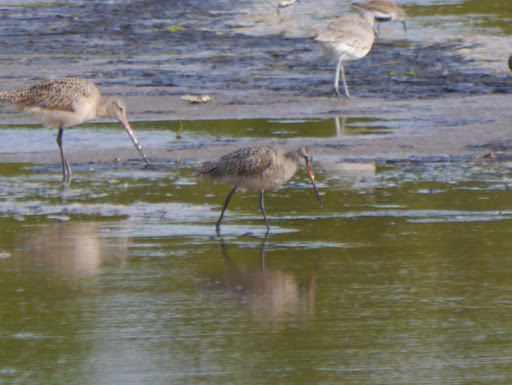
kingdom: Animalia
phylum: Chordata
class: Aves
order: Charadriiformes
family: Scolopacidae
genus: Limosa
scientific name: Limosa fedoa
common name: Marbled godwit
